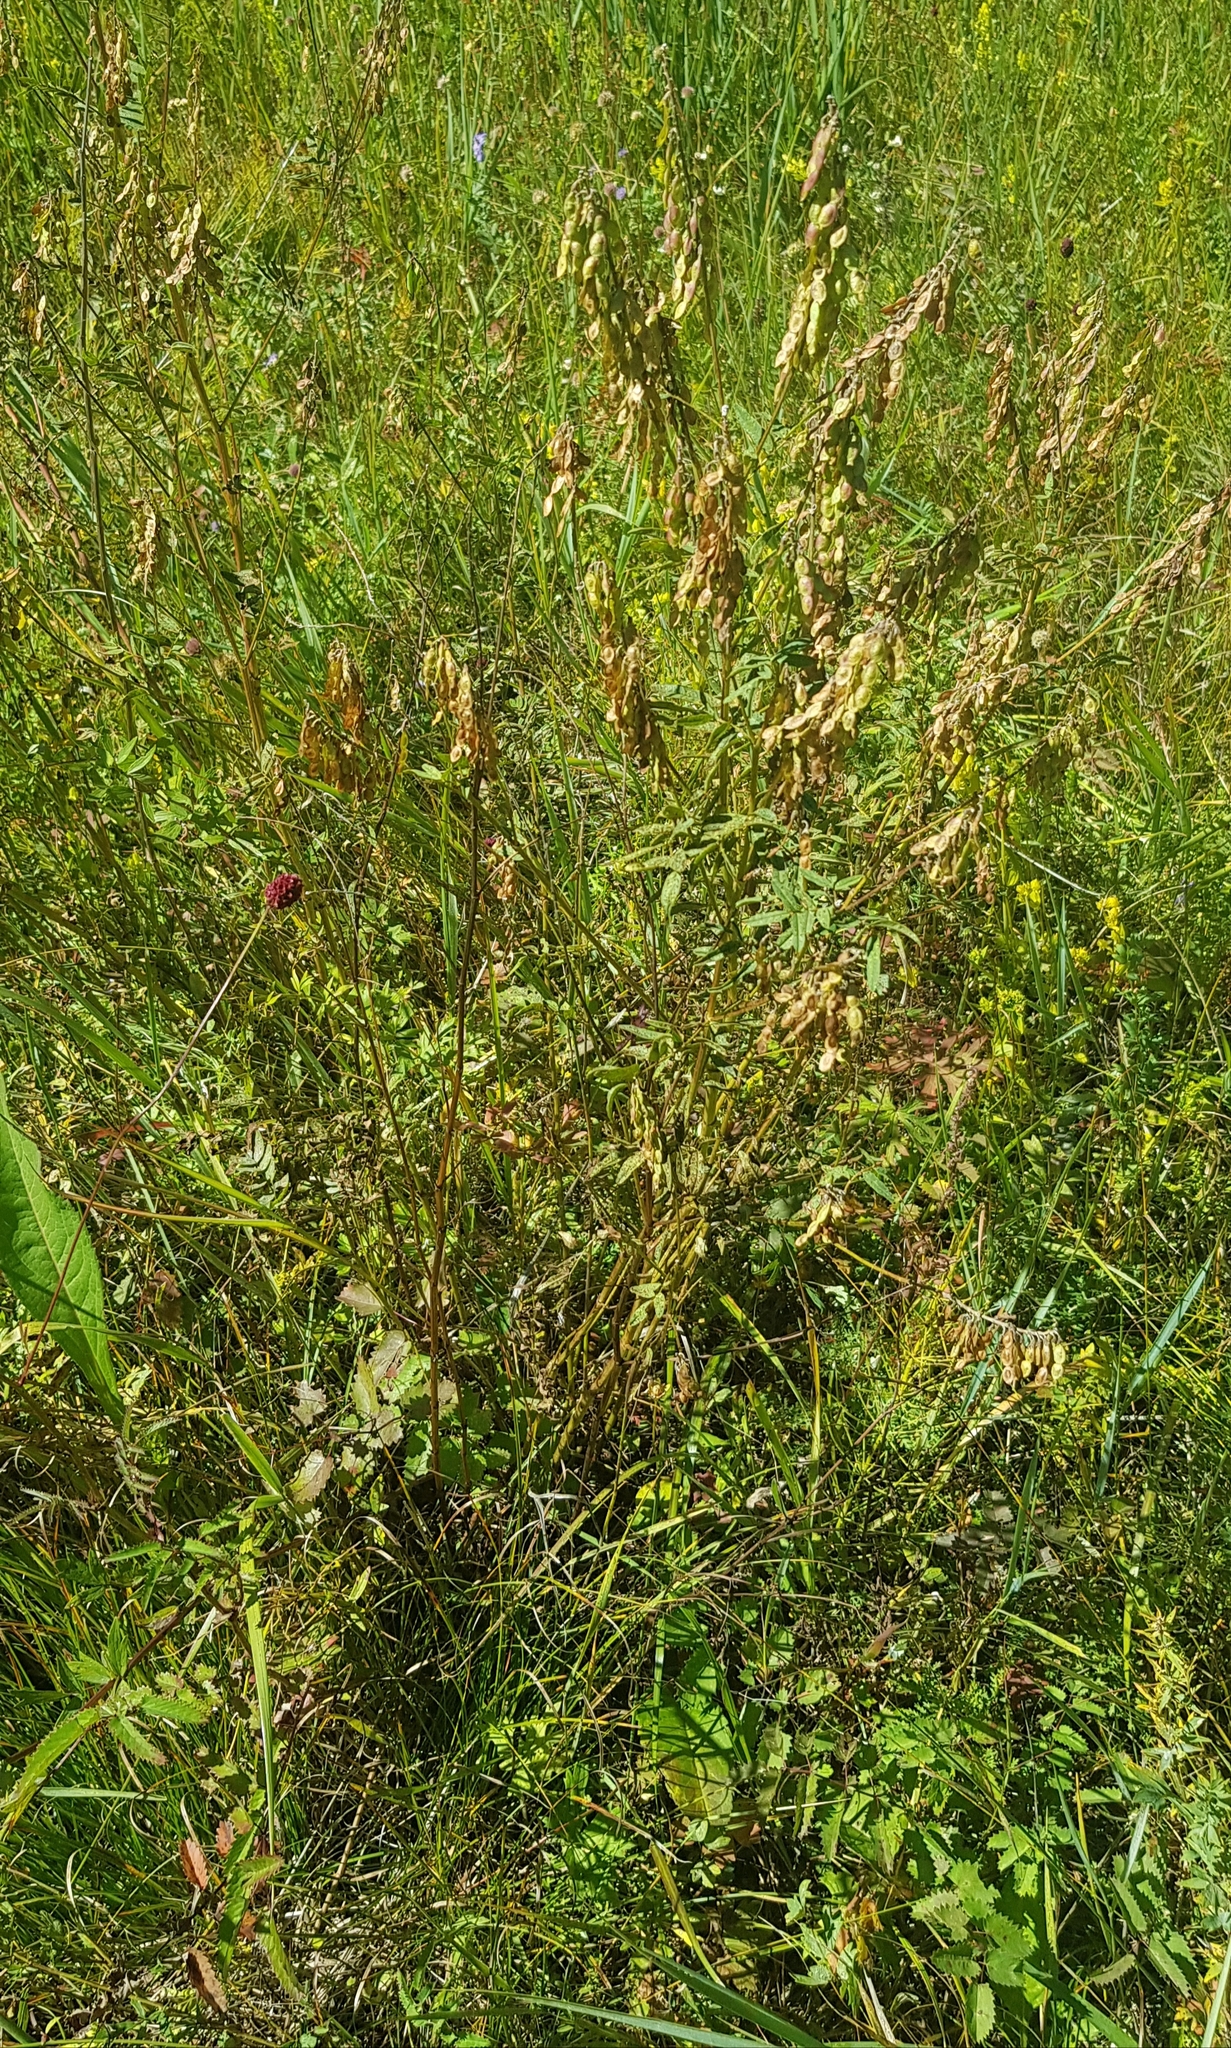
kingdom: Plantae
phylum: Tracheophyta
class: Magnoliopsida
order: Fabales
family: Fabaceae
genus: Hedysarum
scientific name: Hedysarum alpinum
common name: Alpine sweet-vetch
